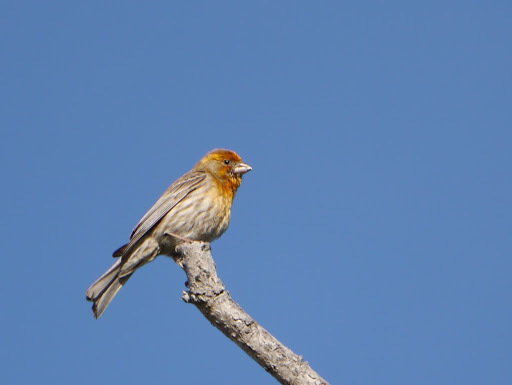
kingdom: Animalia
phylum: Chordata
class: Aves
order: Passeriformes
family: Fringillidae
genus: Haemorhous
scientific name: Haemorhous mexicanus
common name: House finch
